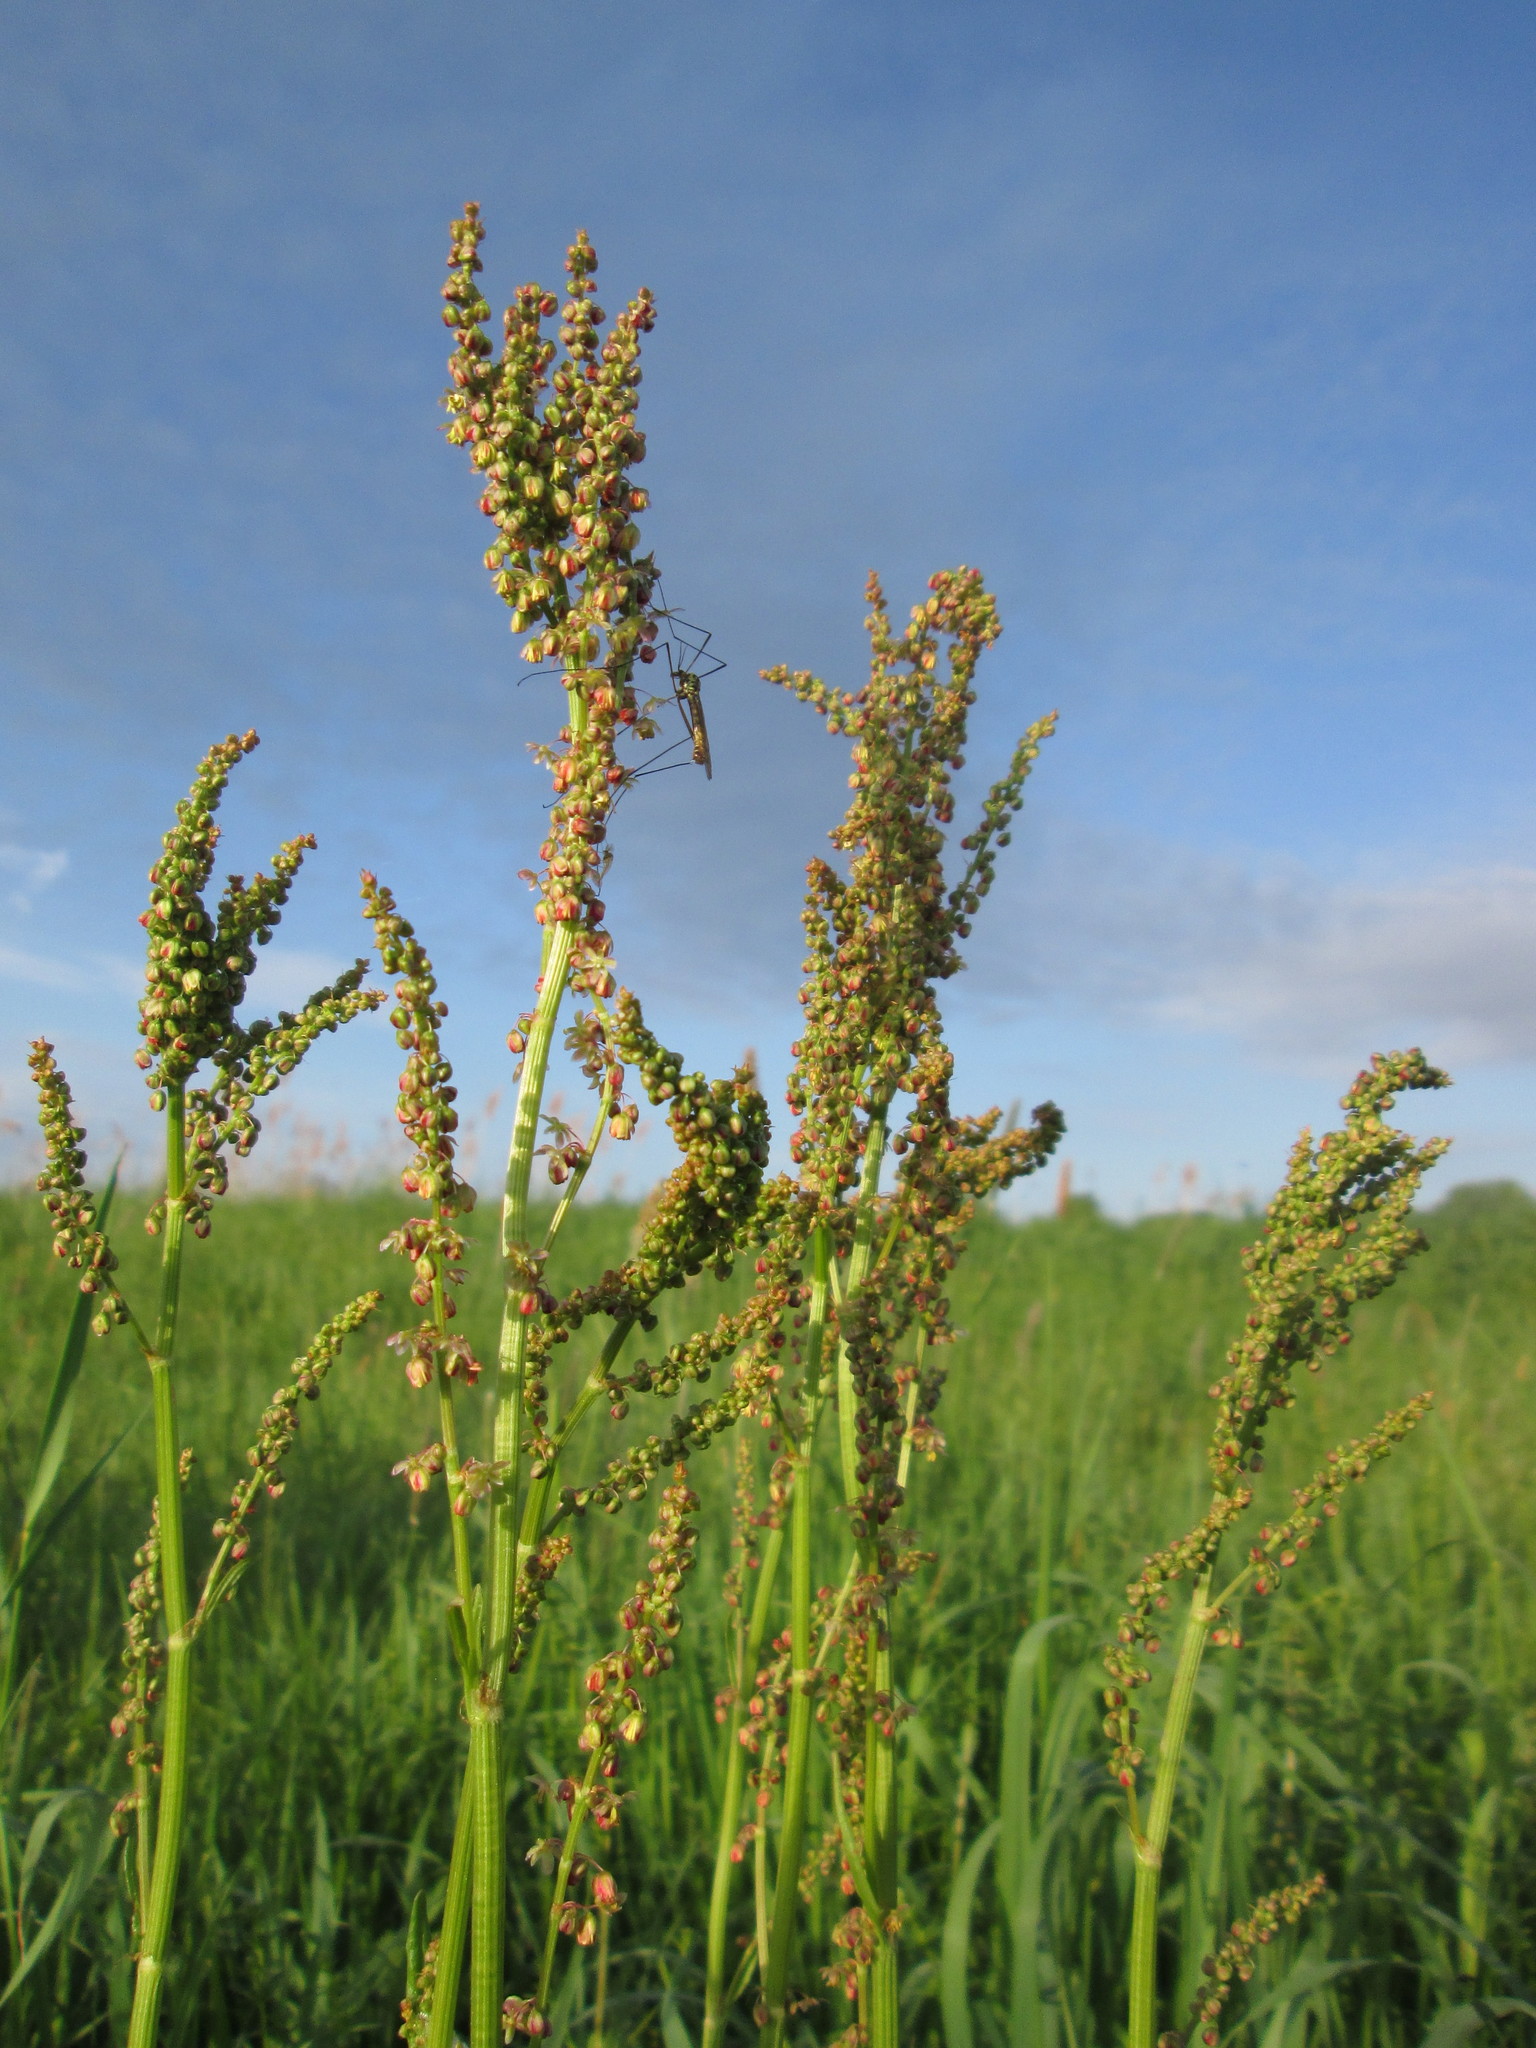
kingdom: Plantae
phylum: Tracheophyta
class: Magnoliopsida
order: Caryophyllales
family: Polygonaceae
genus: Rumex
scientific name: Rumex acetosa
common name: Garden sorrel
